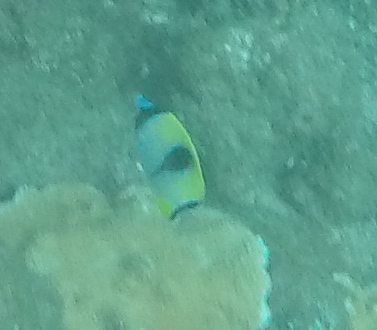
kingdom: Animalia
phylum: Chordata
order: Perciformes
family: Chaetodontidae
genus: Chaetodon
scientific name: Chaetodon unimaculatus
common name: Teardrop butterflyfish
